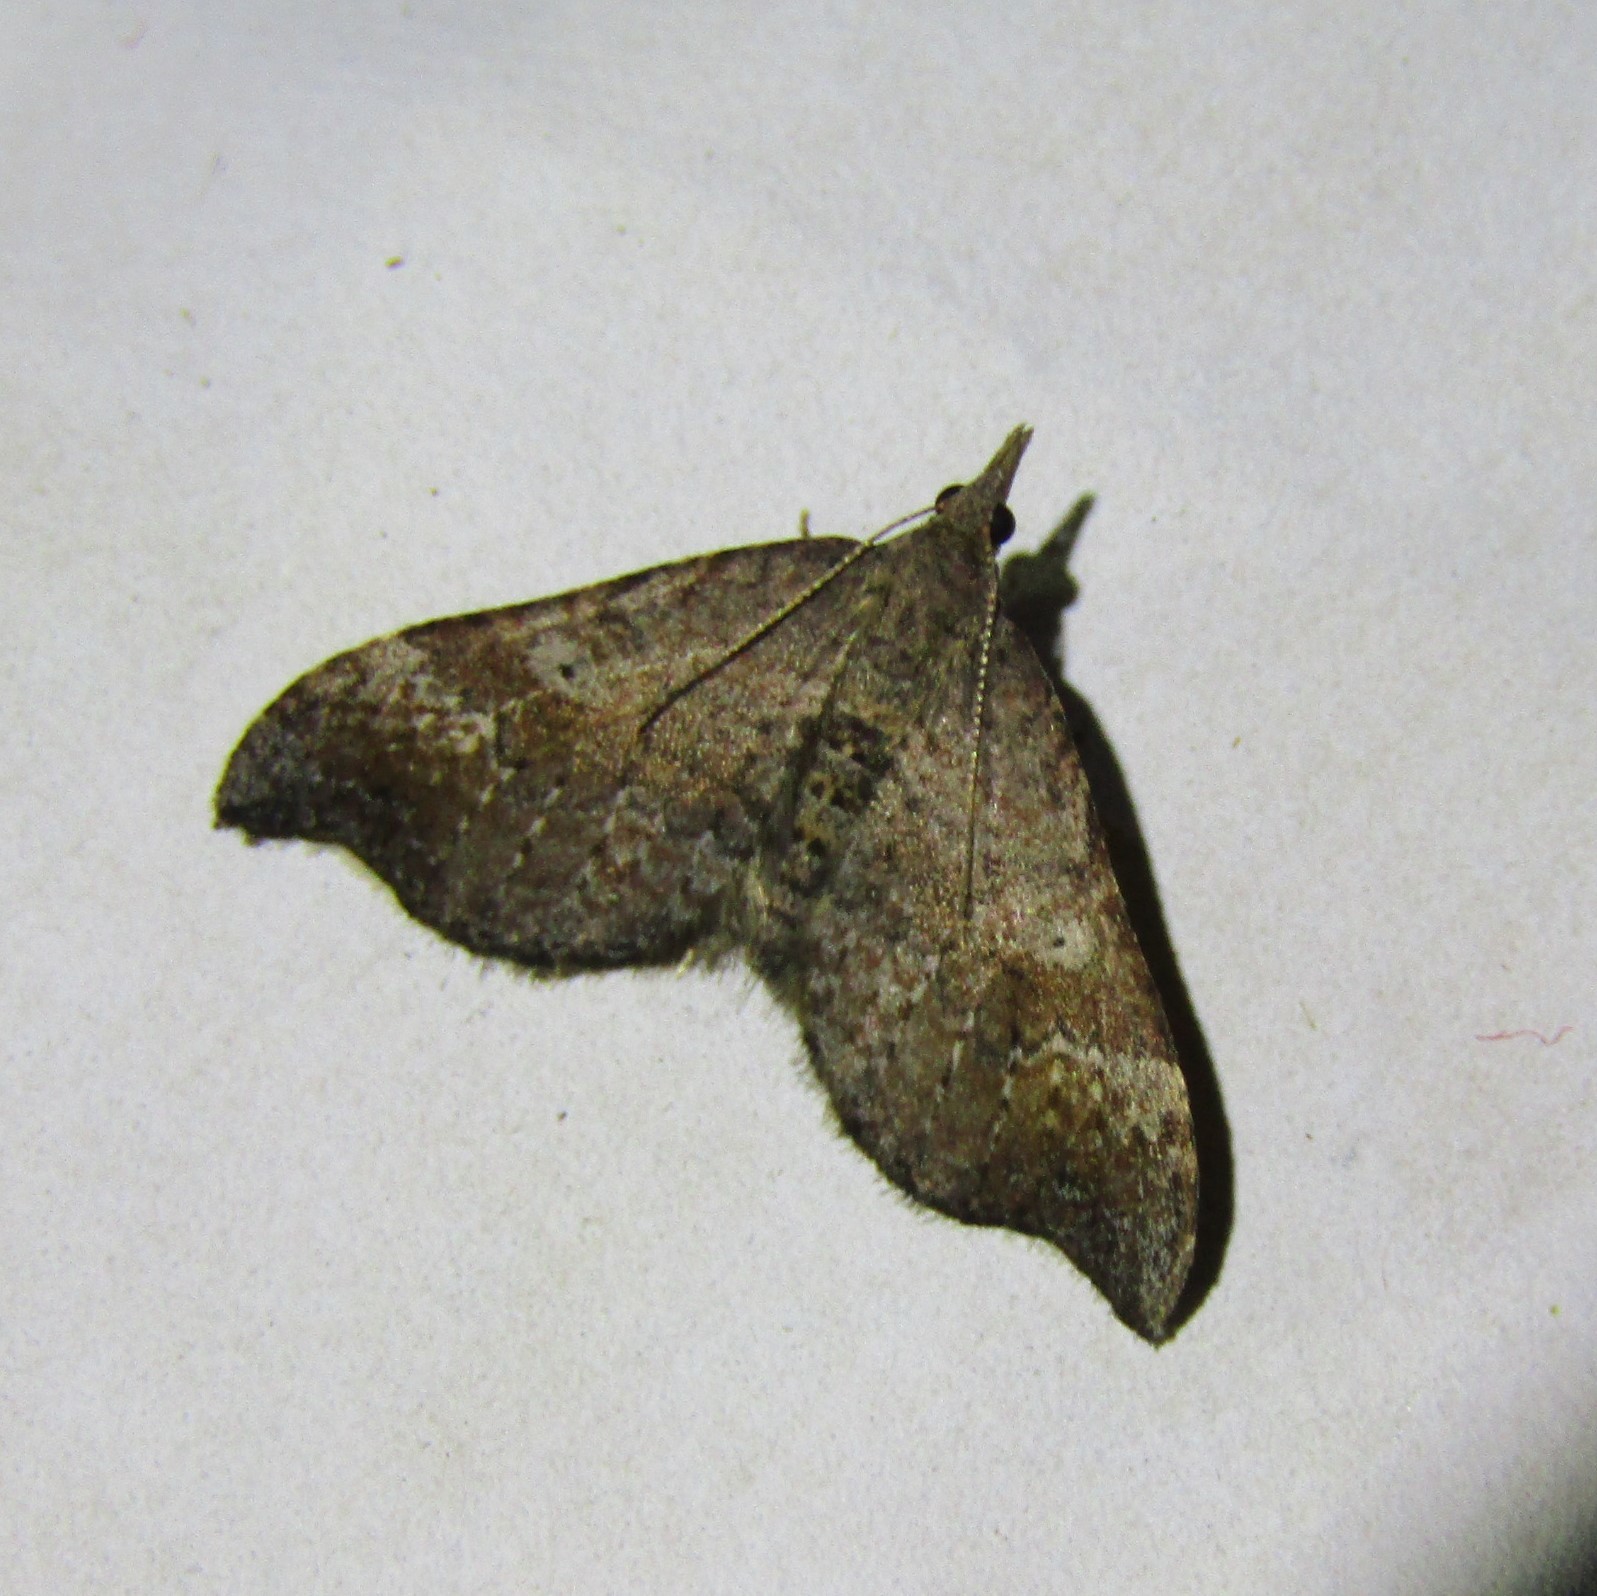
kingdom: Animalia
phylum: Arthropoda
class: Insecta
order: Lepidoptera
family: Geometridae
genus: Homodotis
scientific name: Homodotis megaspilata
